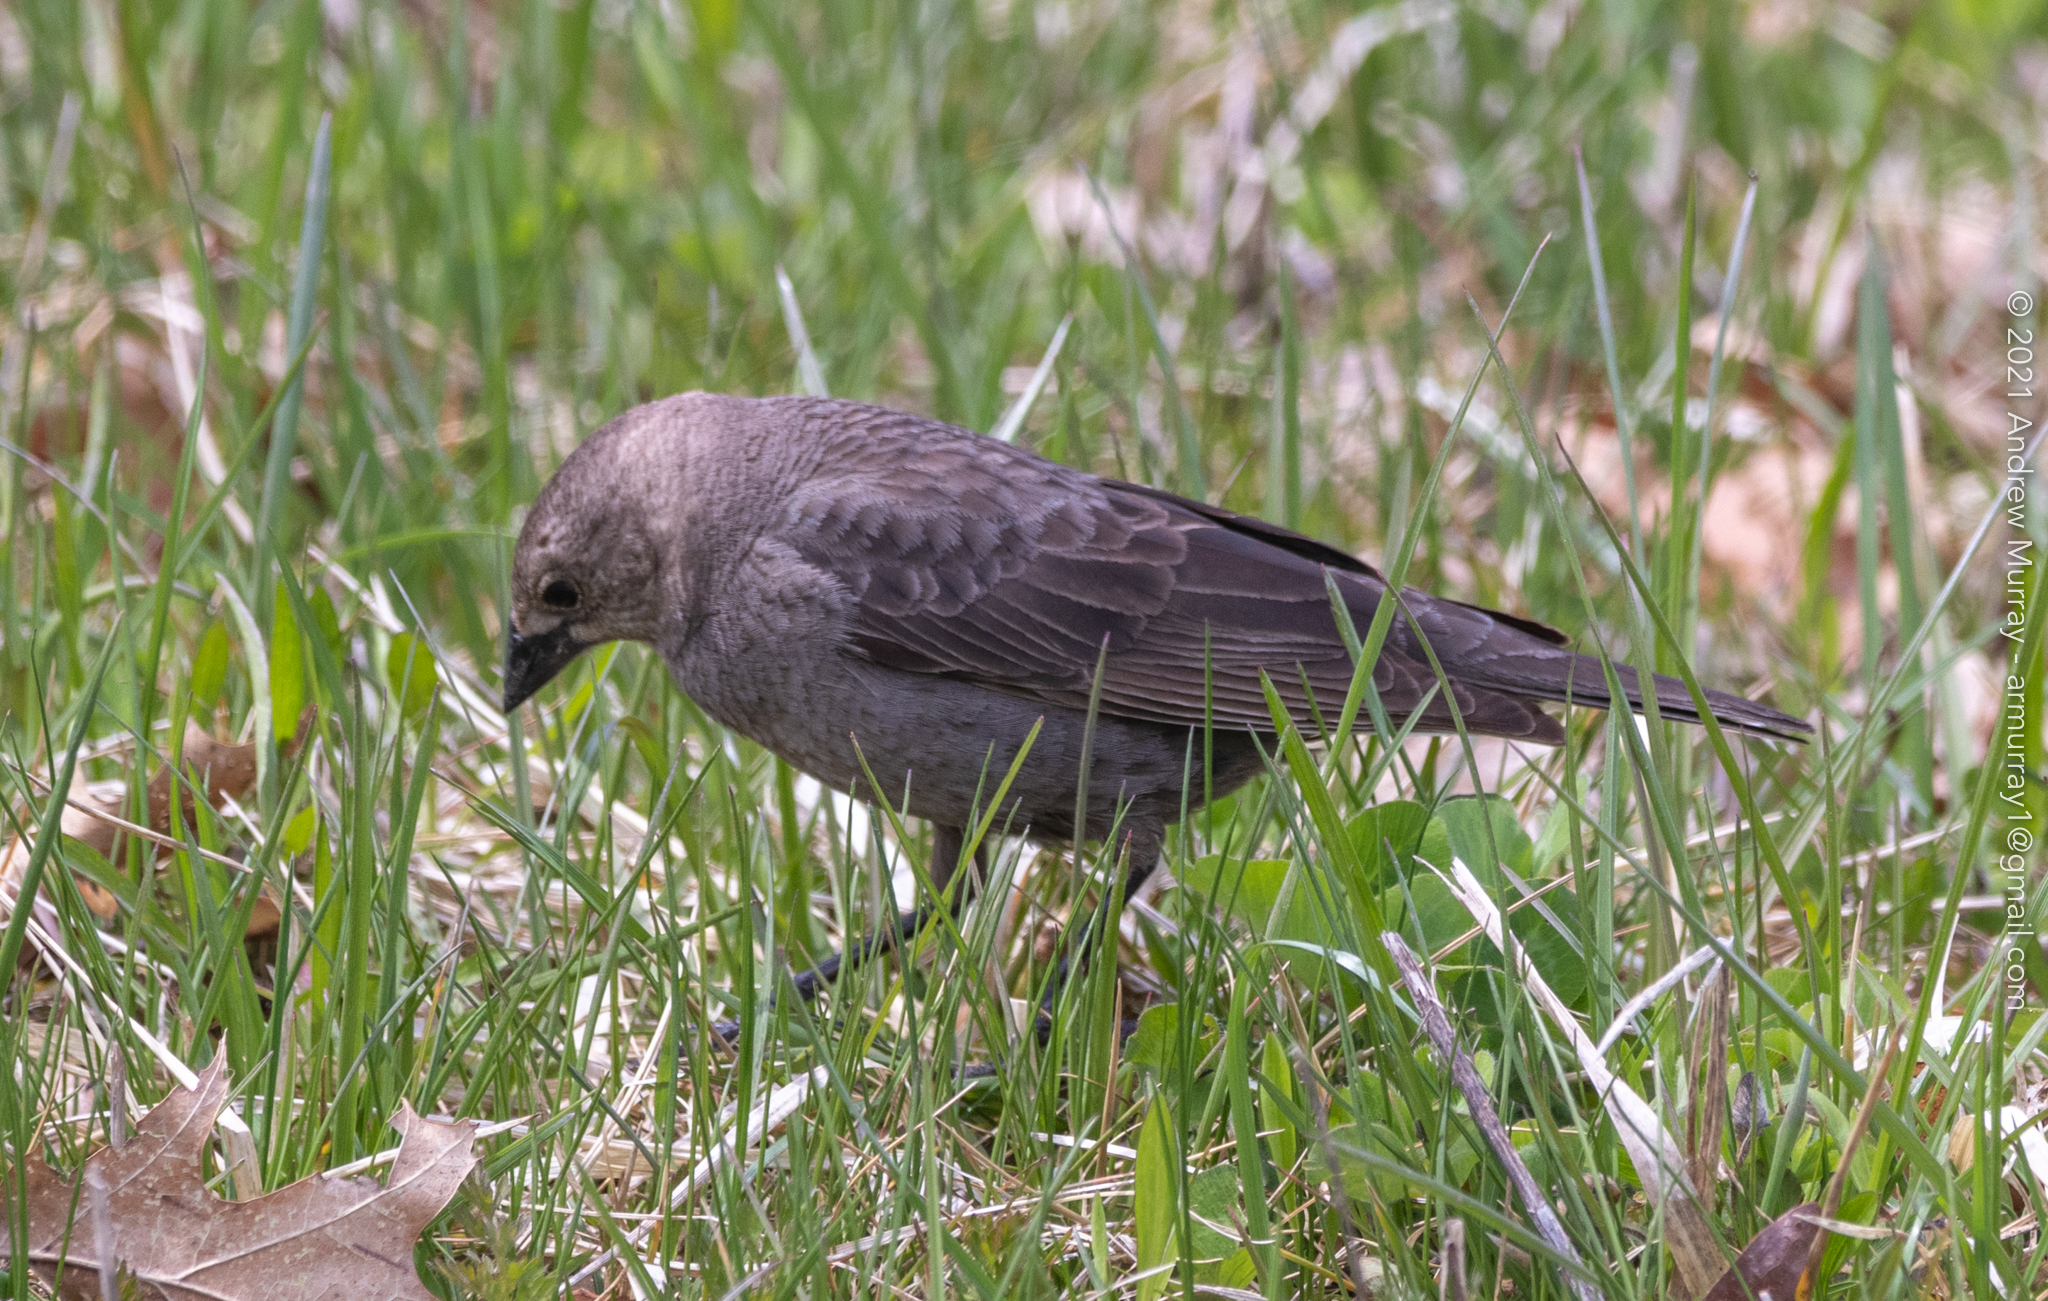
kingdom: Animalia
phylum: Chordata
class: Aves
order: Passeriformes
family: Icteridae
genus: Molothrus
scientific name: Molothrus ater
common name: Brown-headed cowbird
